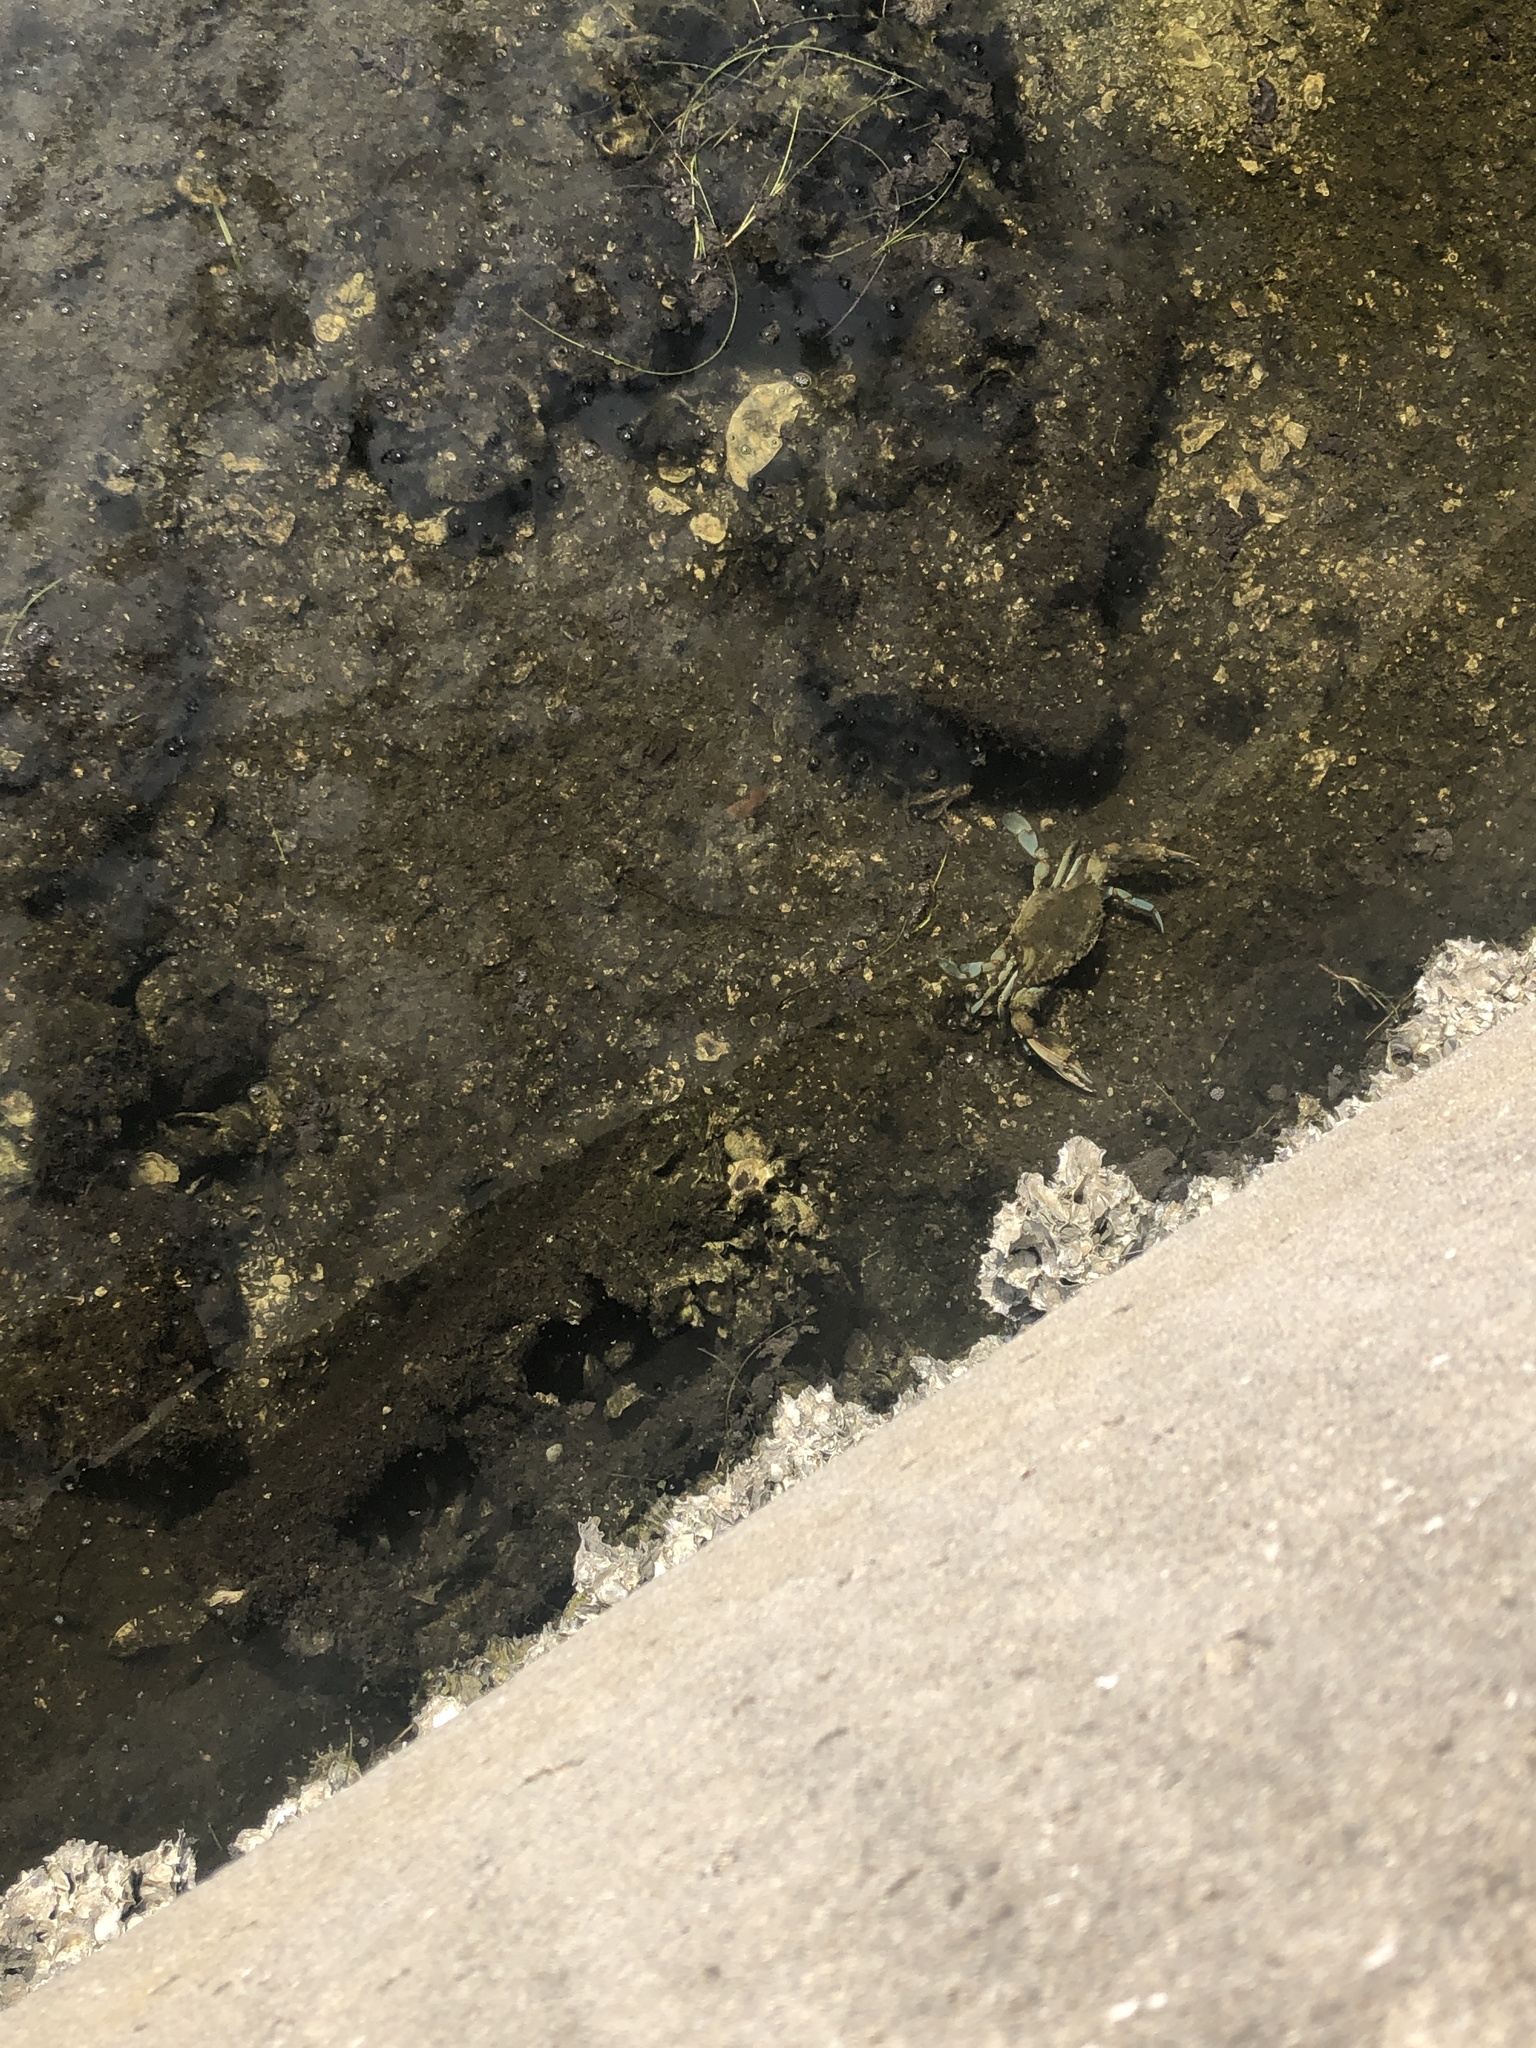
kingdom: Animalia
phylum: Arthropoda
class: Malacostraca
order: Decapoda
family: Portunidae
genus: Callinectes
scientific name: Callinectes sapidus
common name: Blue crab
